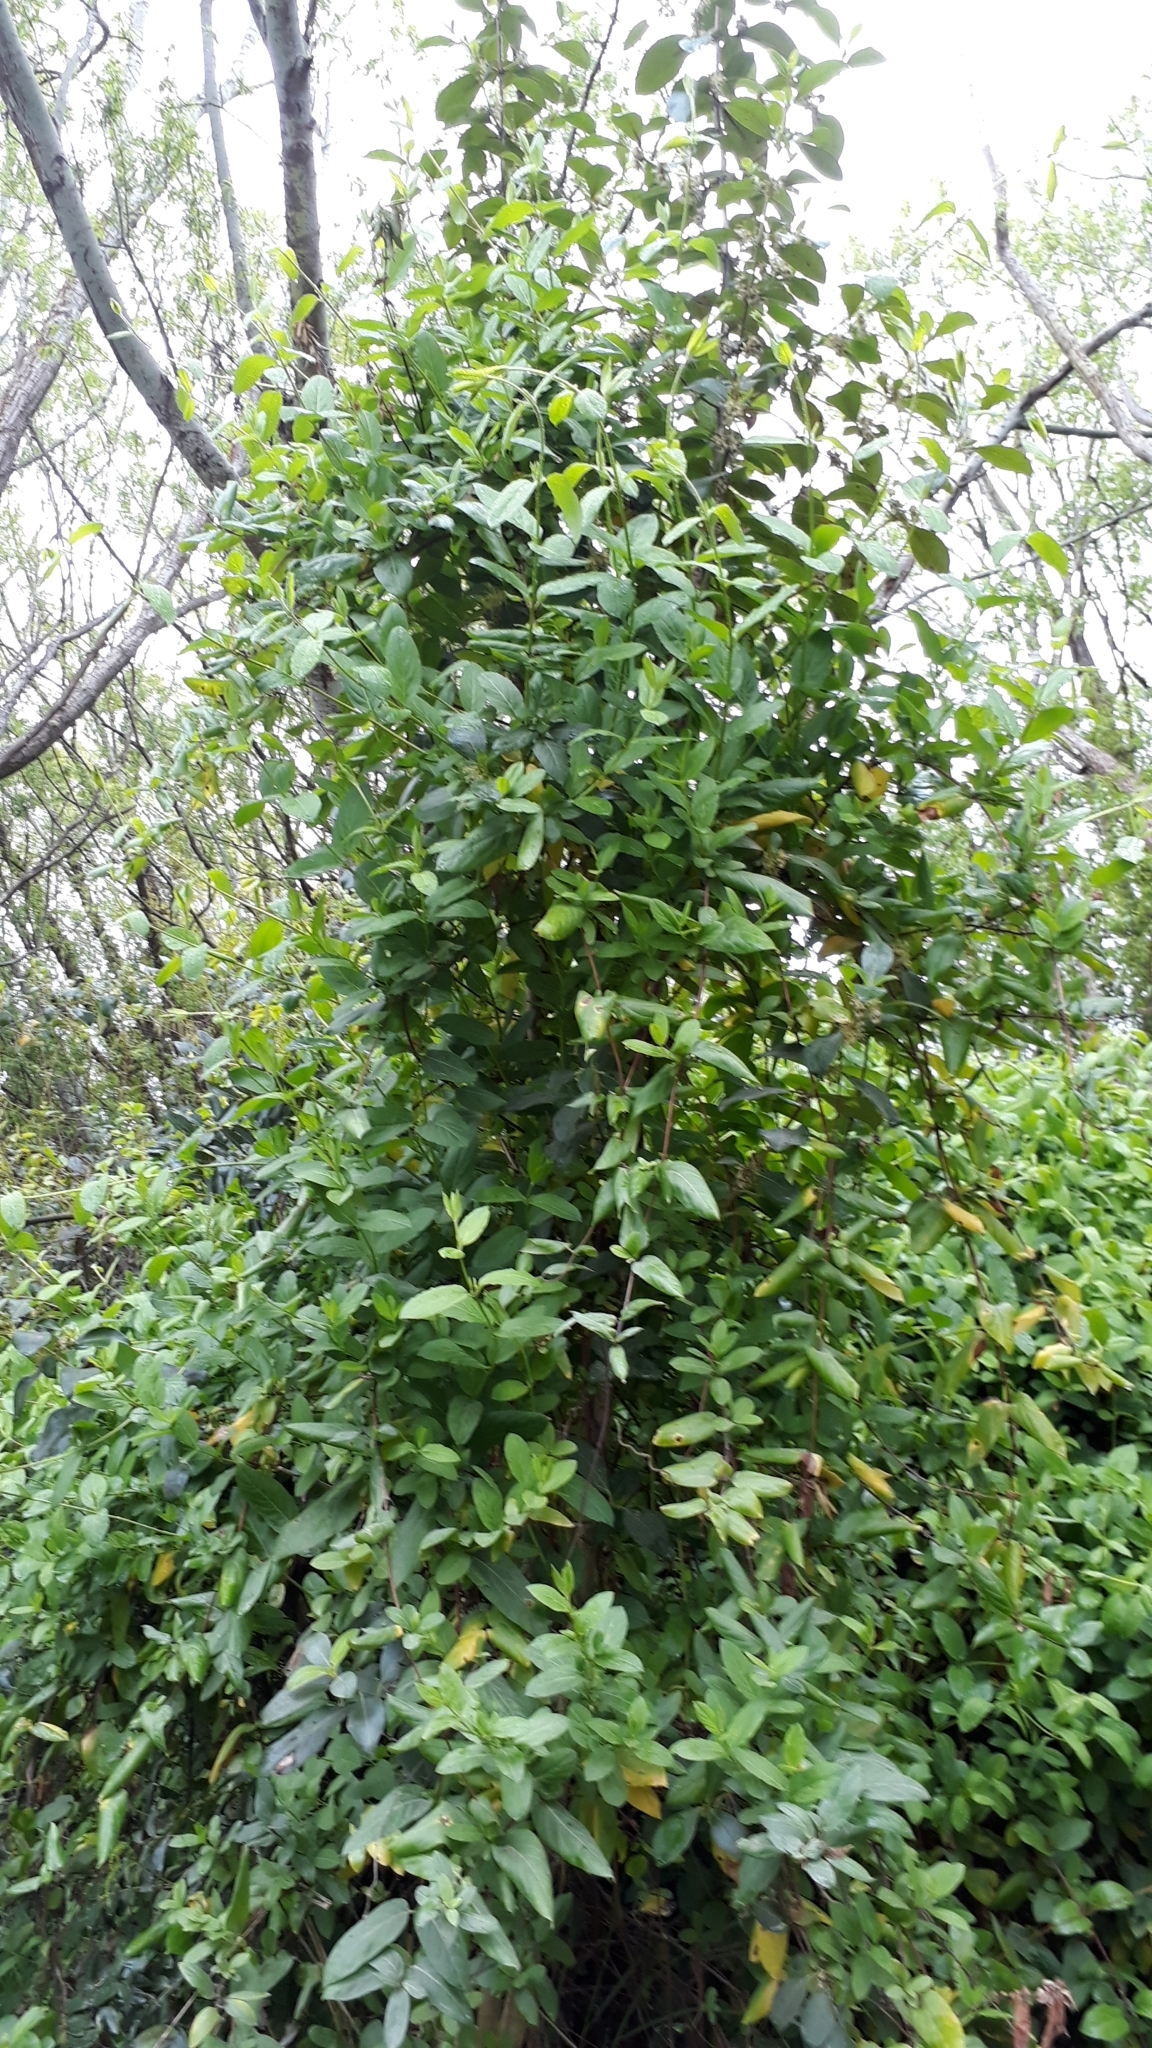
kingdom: Plantae
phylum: Tracheophyta
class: Magnoliopsida
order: Dipsacales
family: Caprifoliaceae
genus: Lonicera
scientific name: Lonicera japonica
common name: Japanese honeysuckle
